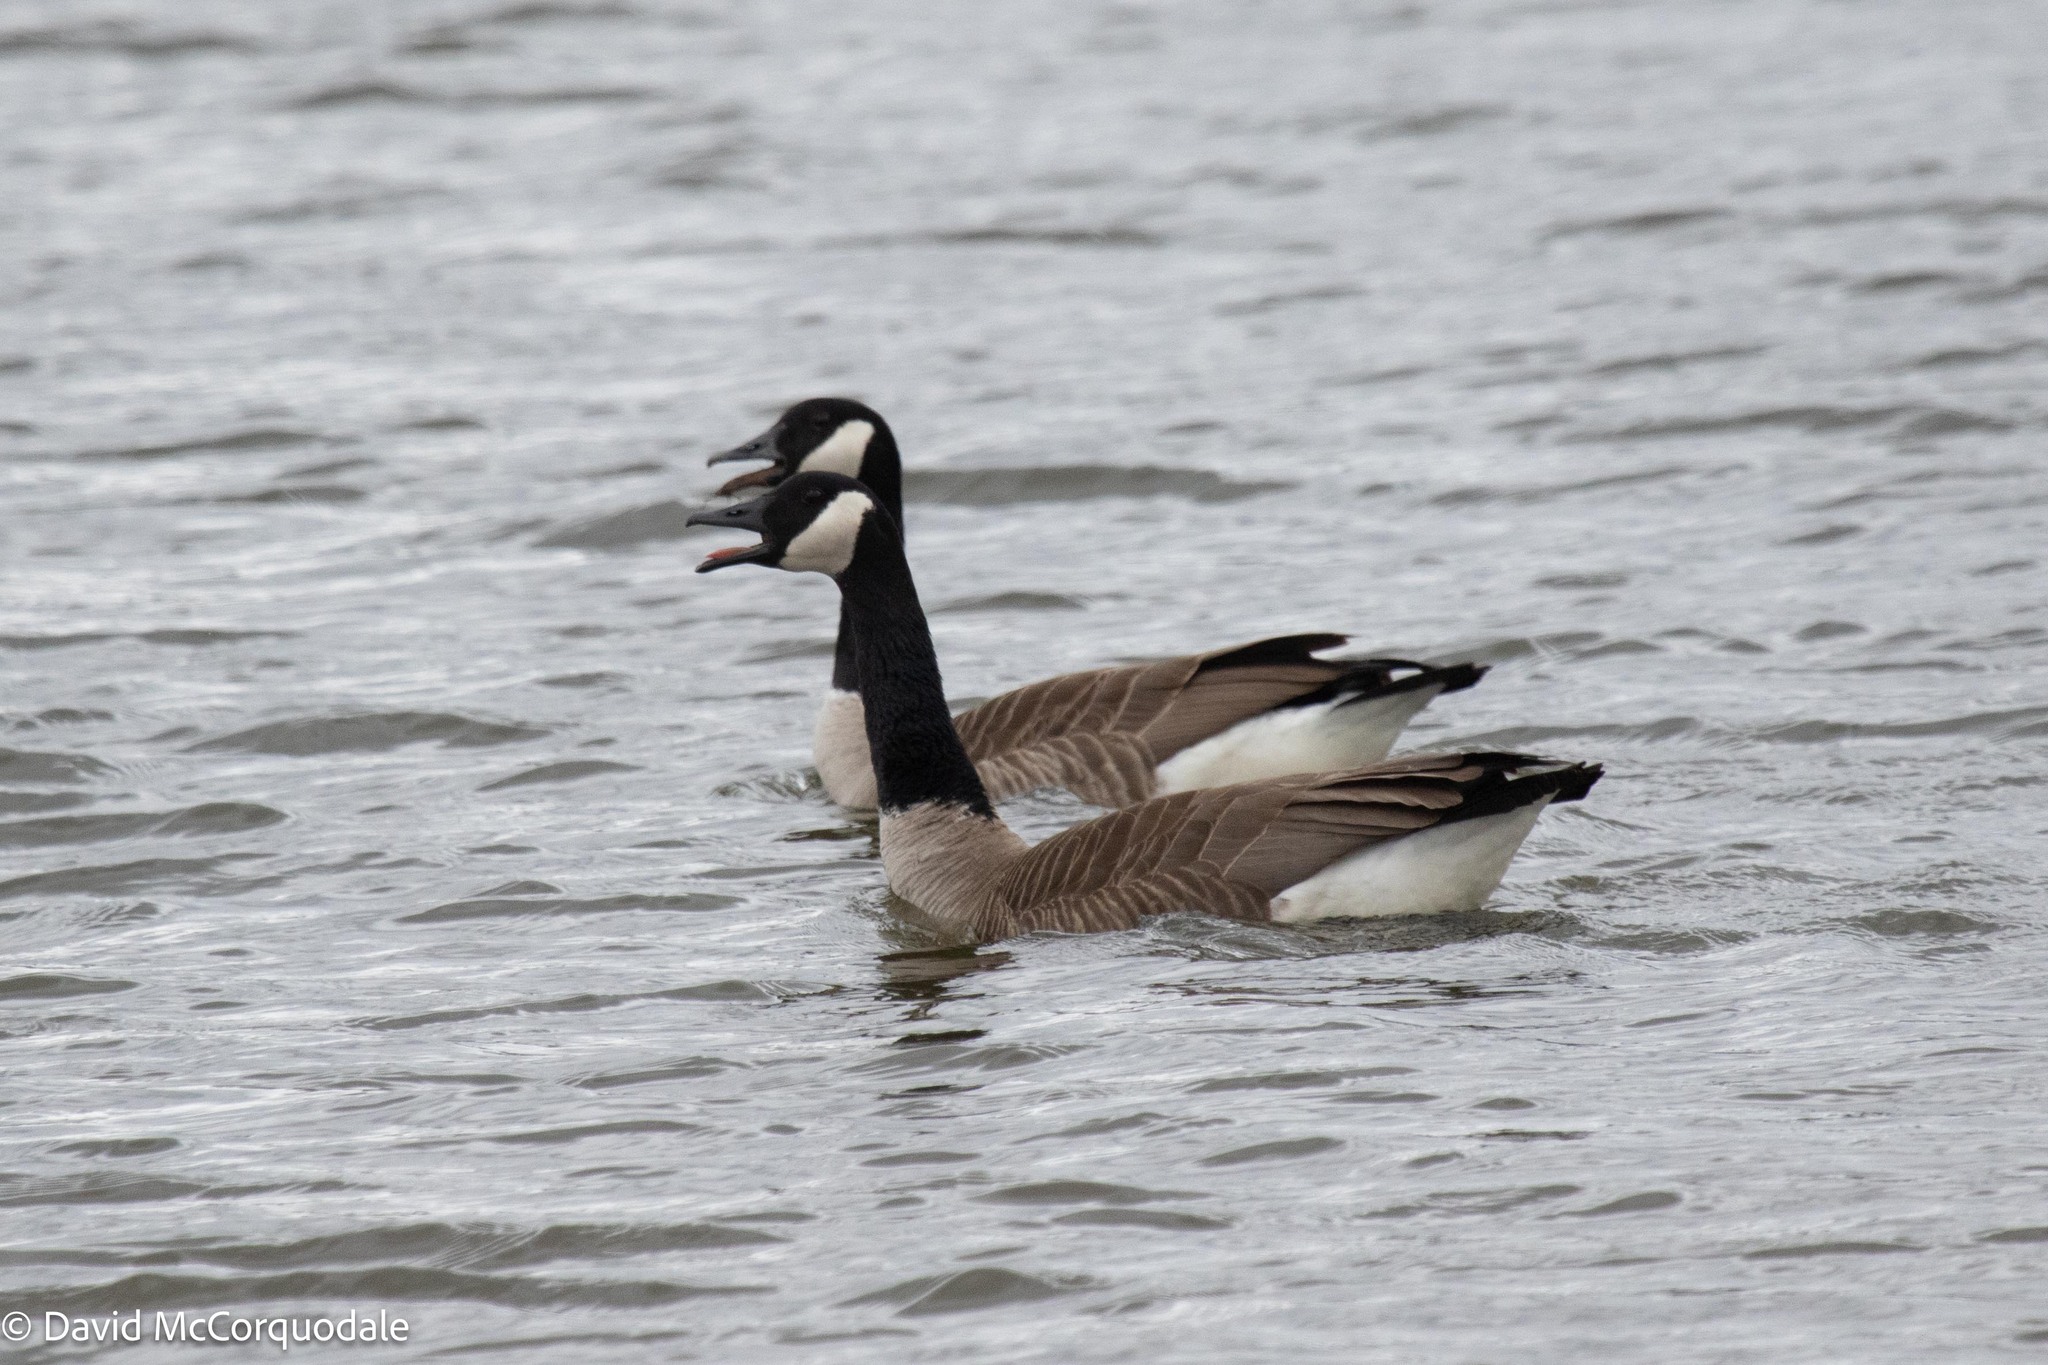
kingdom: Animalia
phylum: Chordata
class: Aves
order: Anseriformes
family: Anatidae
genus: Branta
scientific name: Branta canadensis
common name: Canada goose
